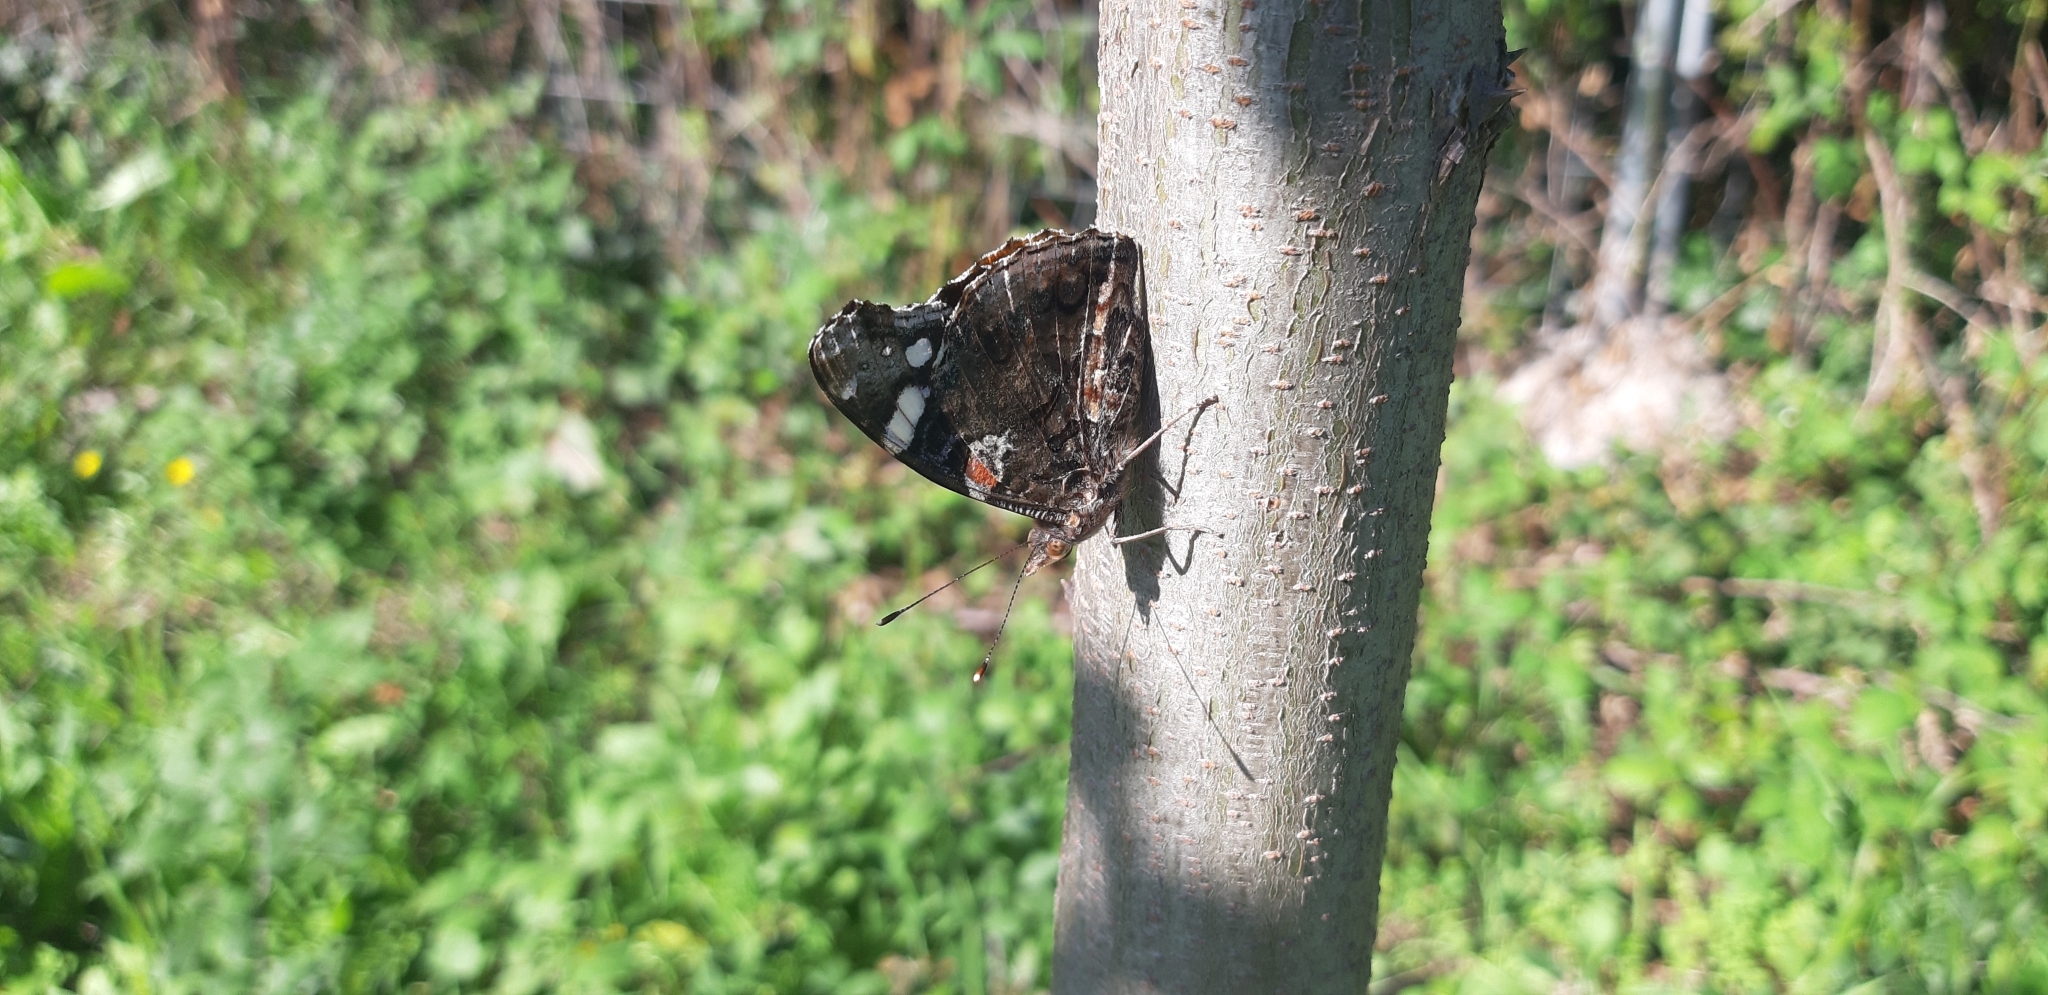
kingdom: Animalia
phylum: Arthropoda
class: Insecta
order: Lepidoptera
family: Nymphalidae
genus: Vanessa
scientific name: Vanessa atalanta
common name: Red admiral
